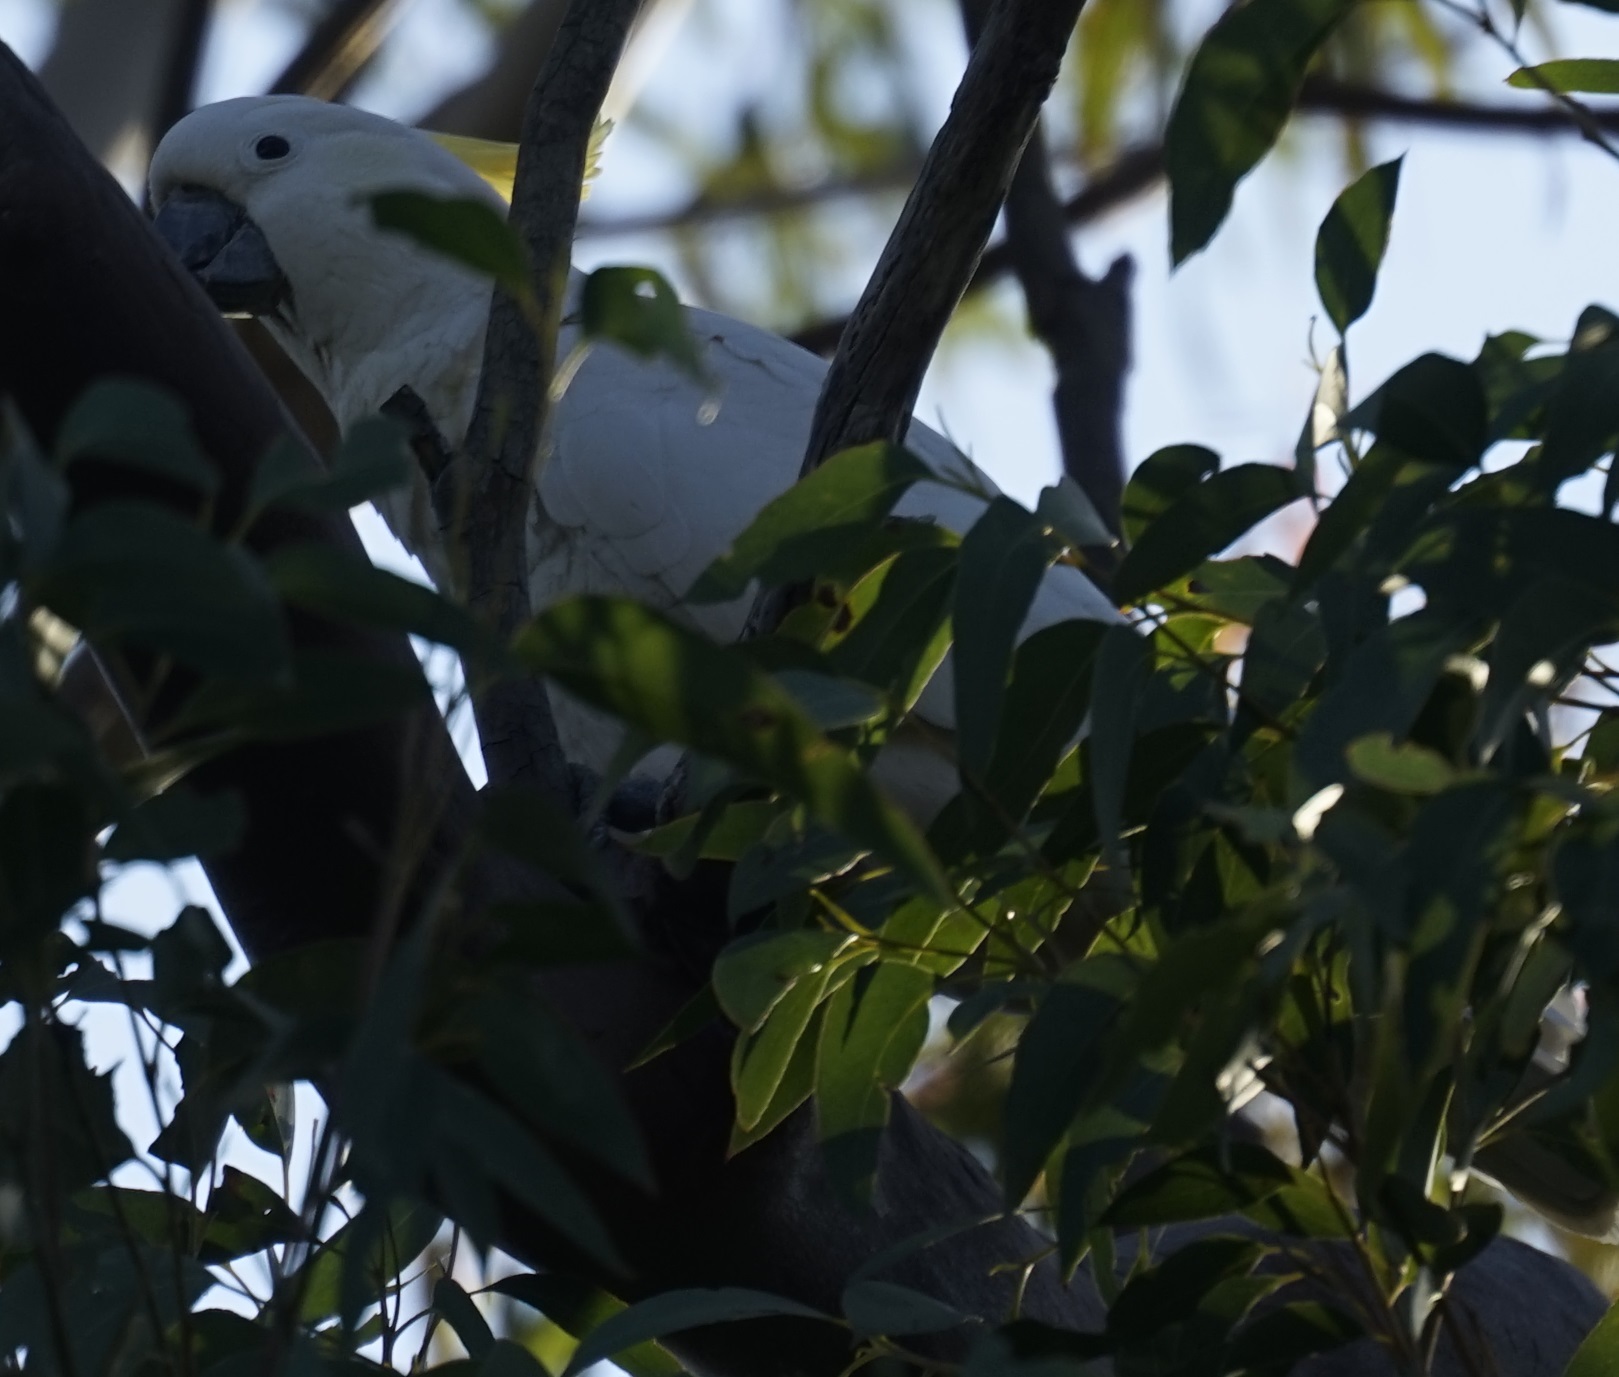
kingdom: Animalia
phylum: Chordata
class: Aves
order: Psittaciformes
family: Psittacidae
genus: Cacatua
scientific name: Cacatua galerita
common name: Sulphur-crested cockatoo
